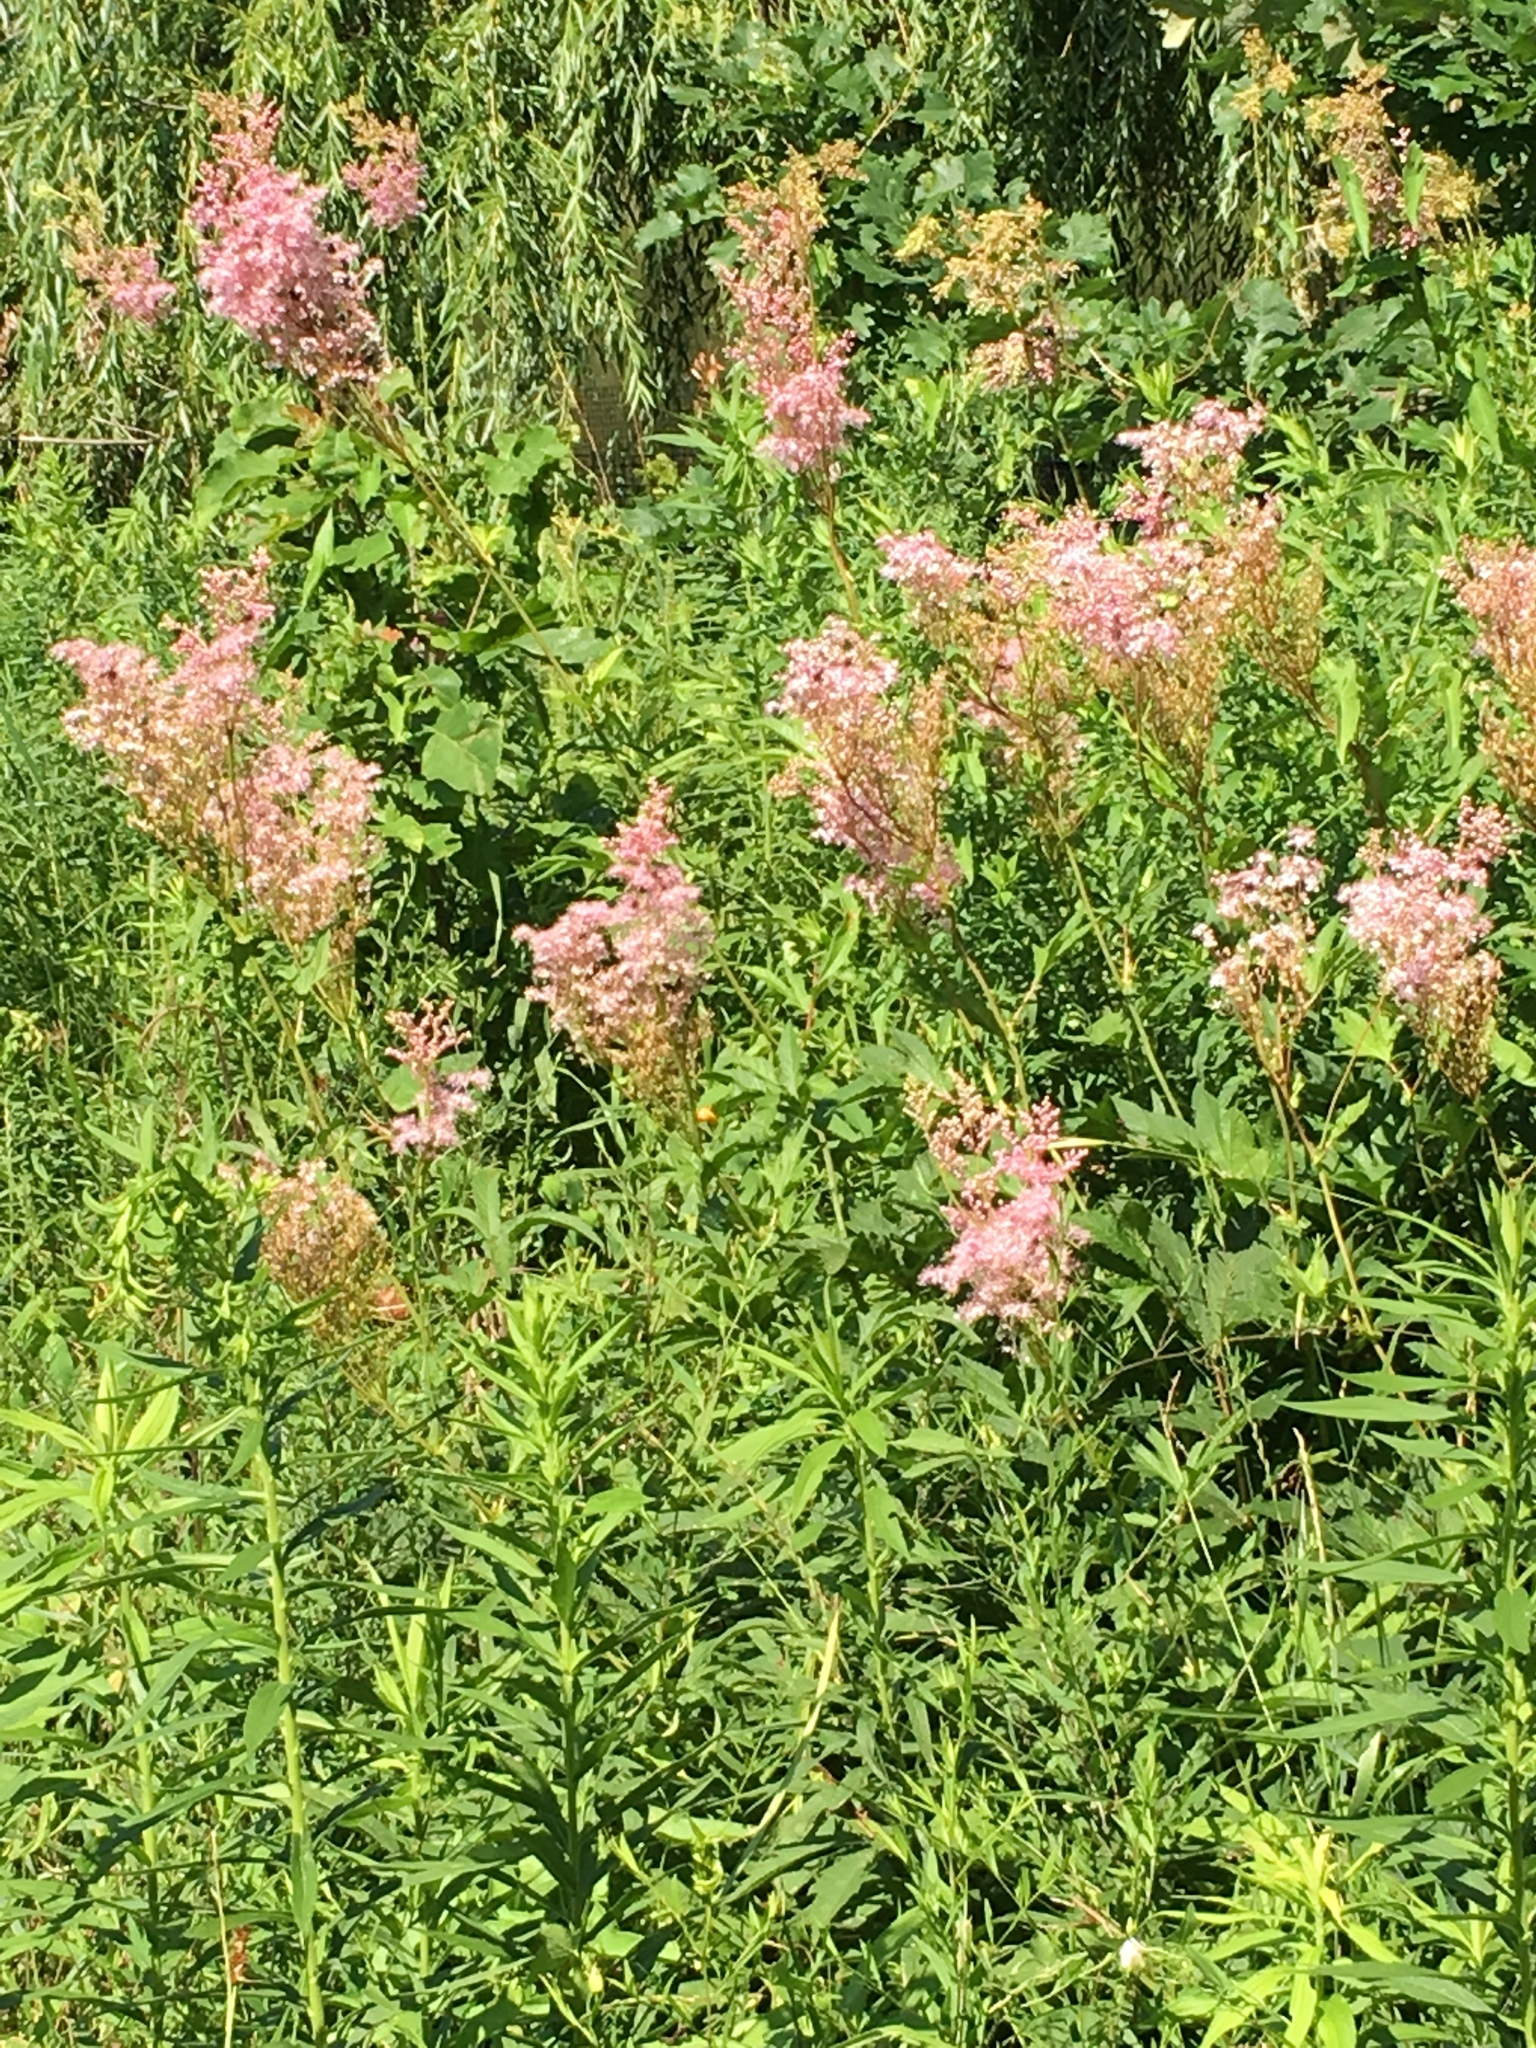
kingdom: Plantae
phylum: Tracheophyta
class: Magnoliopsida
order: Rosales
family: Rosaceae
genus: Filipendula
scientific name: Filipendula rubra
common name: Queen-of-the-prairie
